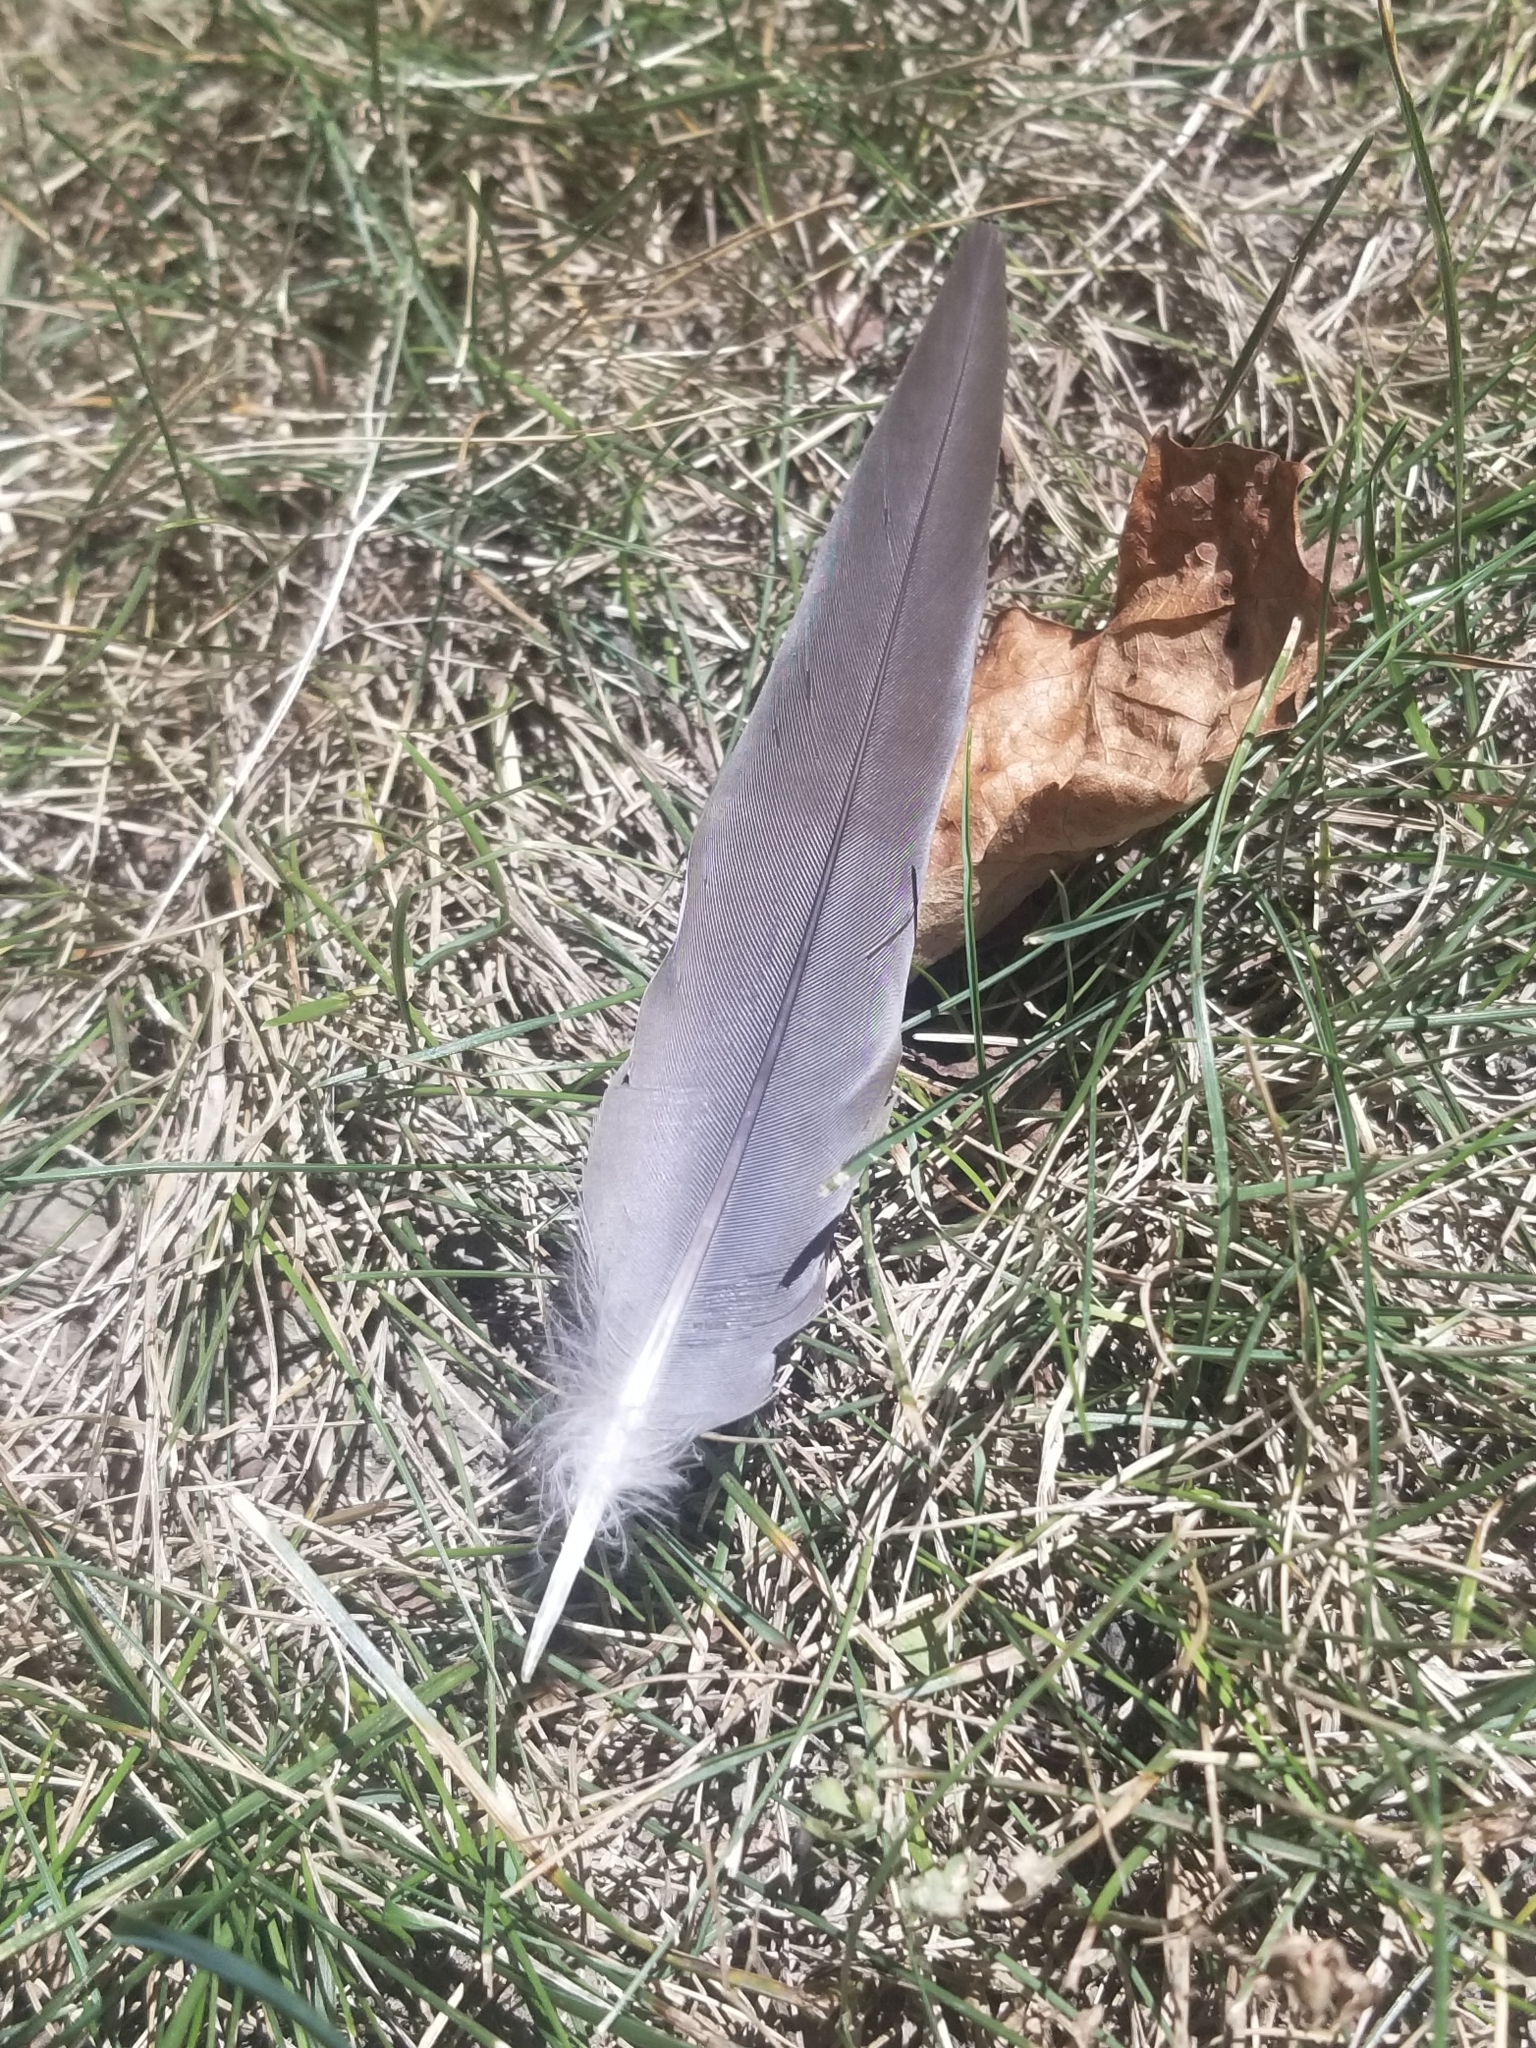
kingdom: Animalia
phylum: Chordata
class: Aves
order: Columbiformes
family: Columbidae
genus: Zenaida
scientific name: Zenaida macroura
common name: Mourning dove
